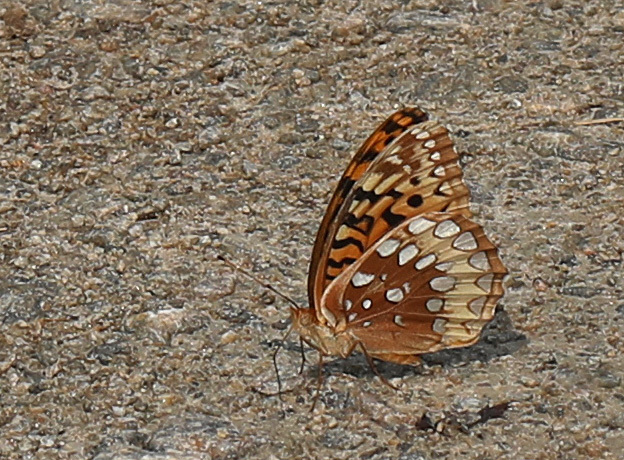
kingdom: Animalia
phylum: Arthropoda
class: Insecta
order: Lepidoptera
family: Nymphalidae
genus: Speyeria
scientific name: Speyeria cybele
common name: Great spangled fritillary
